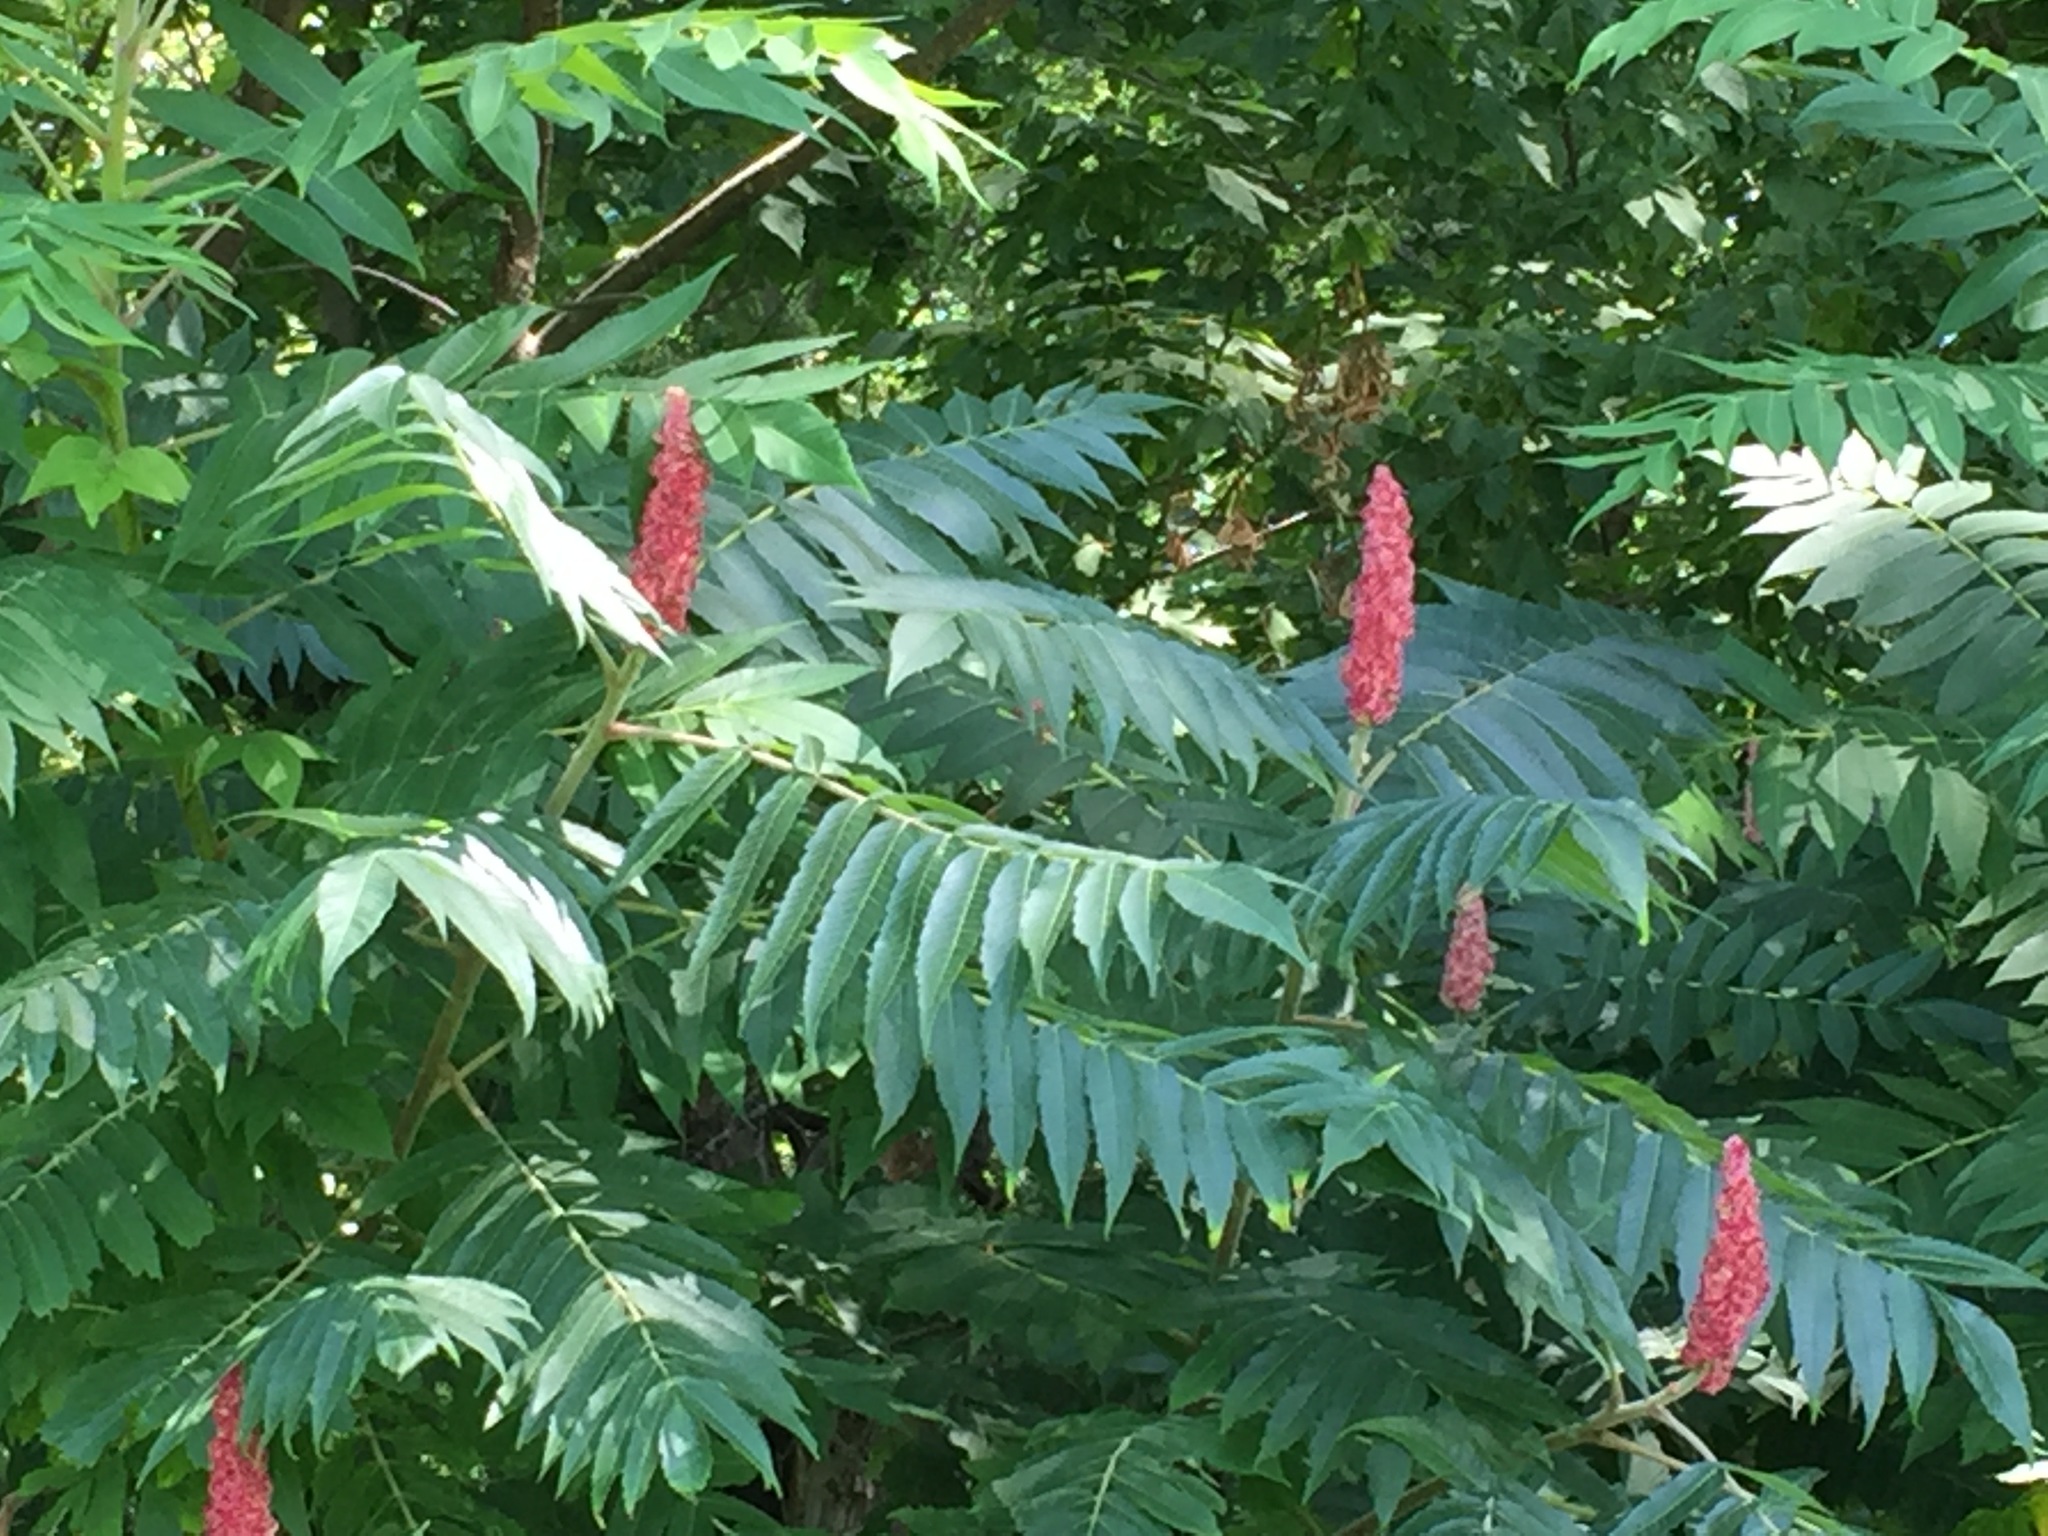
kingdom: Plantae
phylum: Tracheophyta
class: Magnoliopsida
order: Sapindales
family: Anacardiaceae
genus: Rhus
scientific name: Rhus typhina
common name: Staghorn sumac
